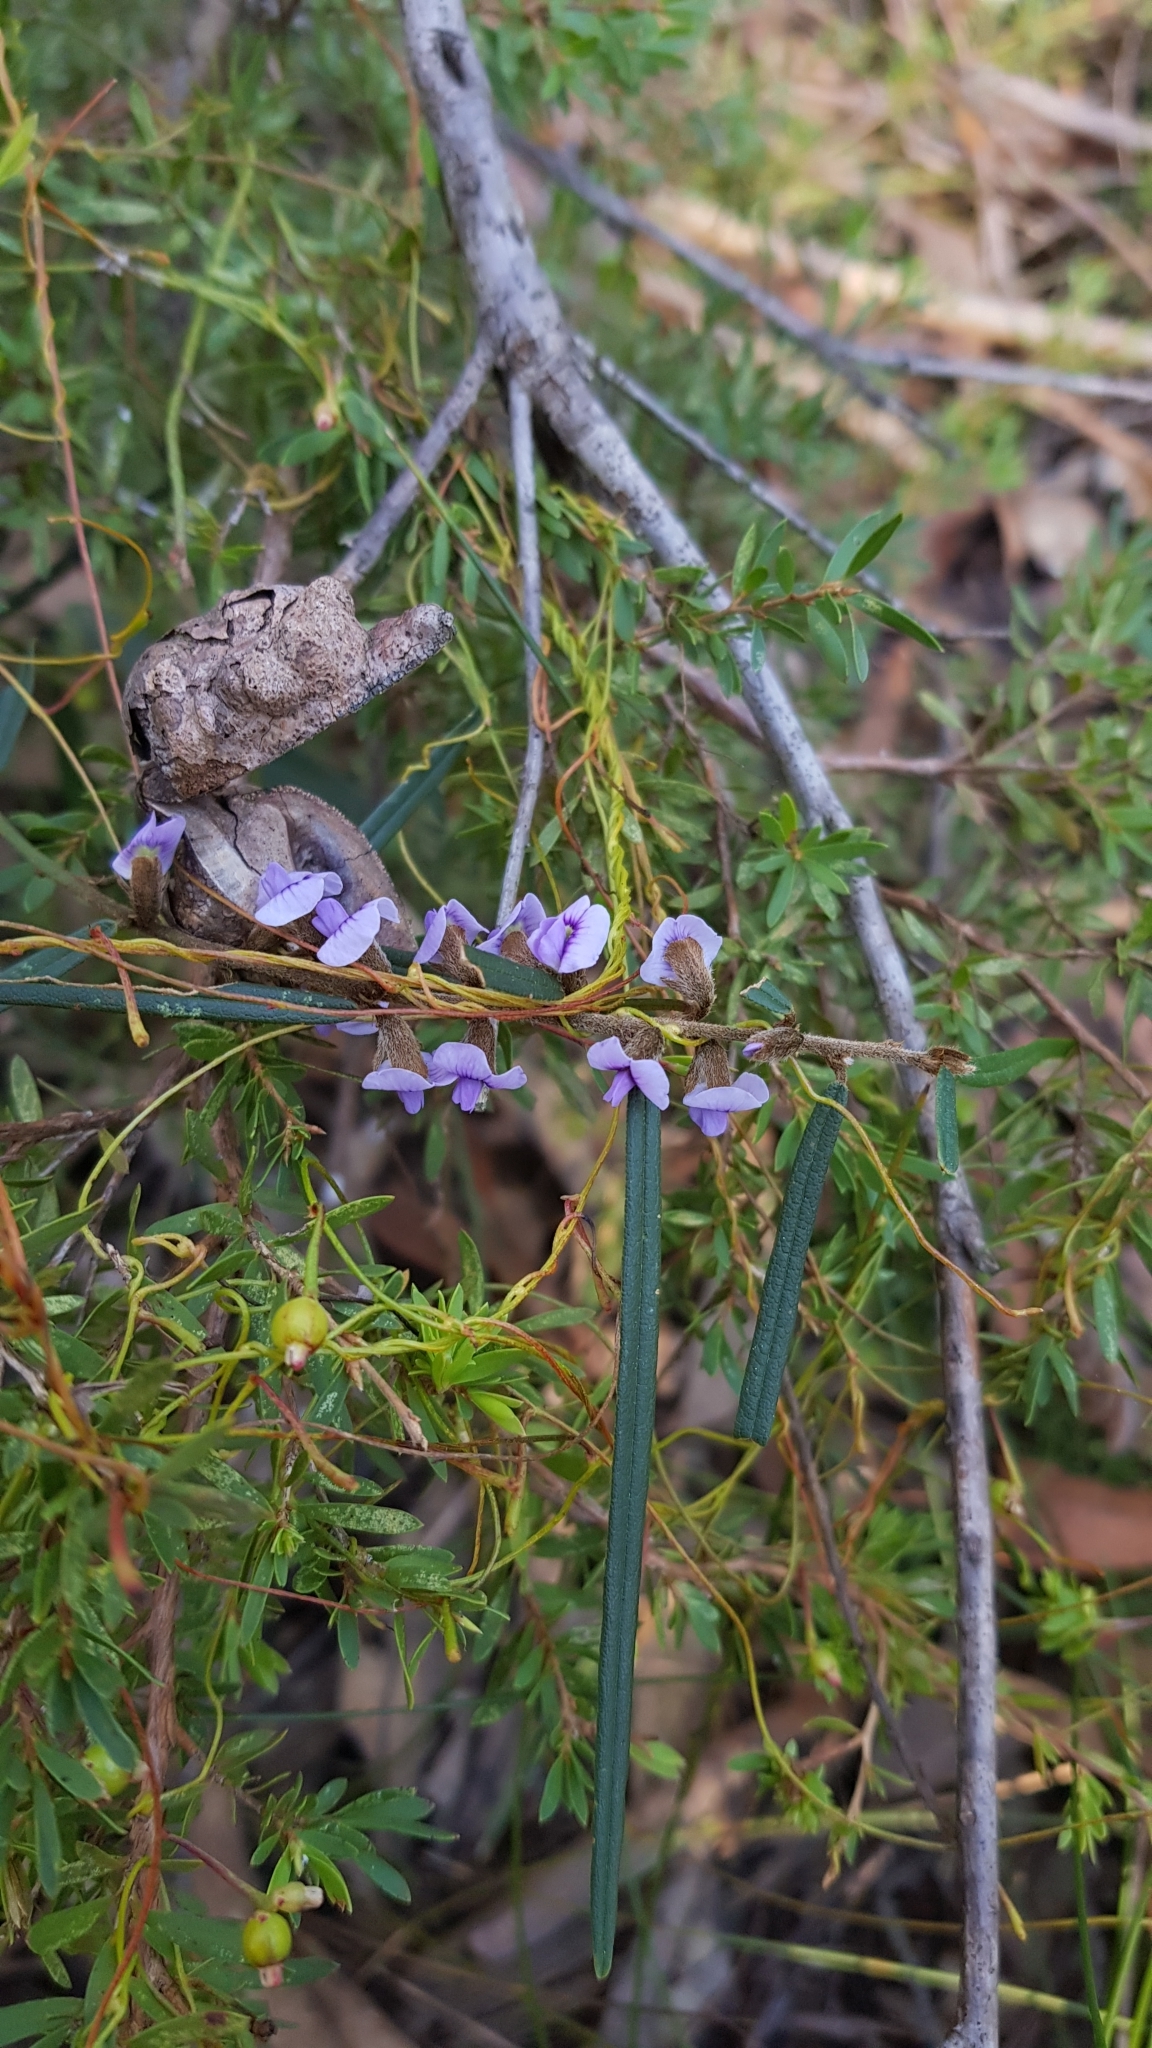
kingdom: Plantae
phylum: Tracheophyta
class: Magnoliopsida
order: Fabales
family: Fabaceae
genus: Hovea
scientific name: Hovea linearis
